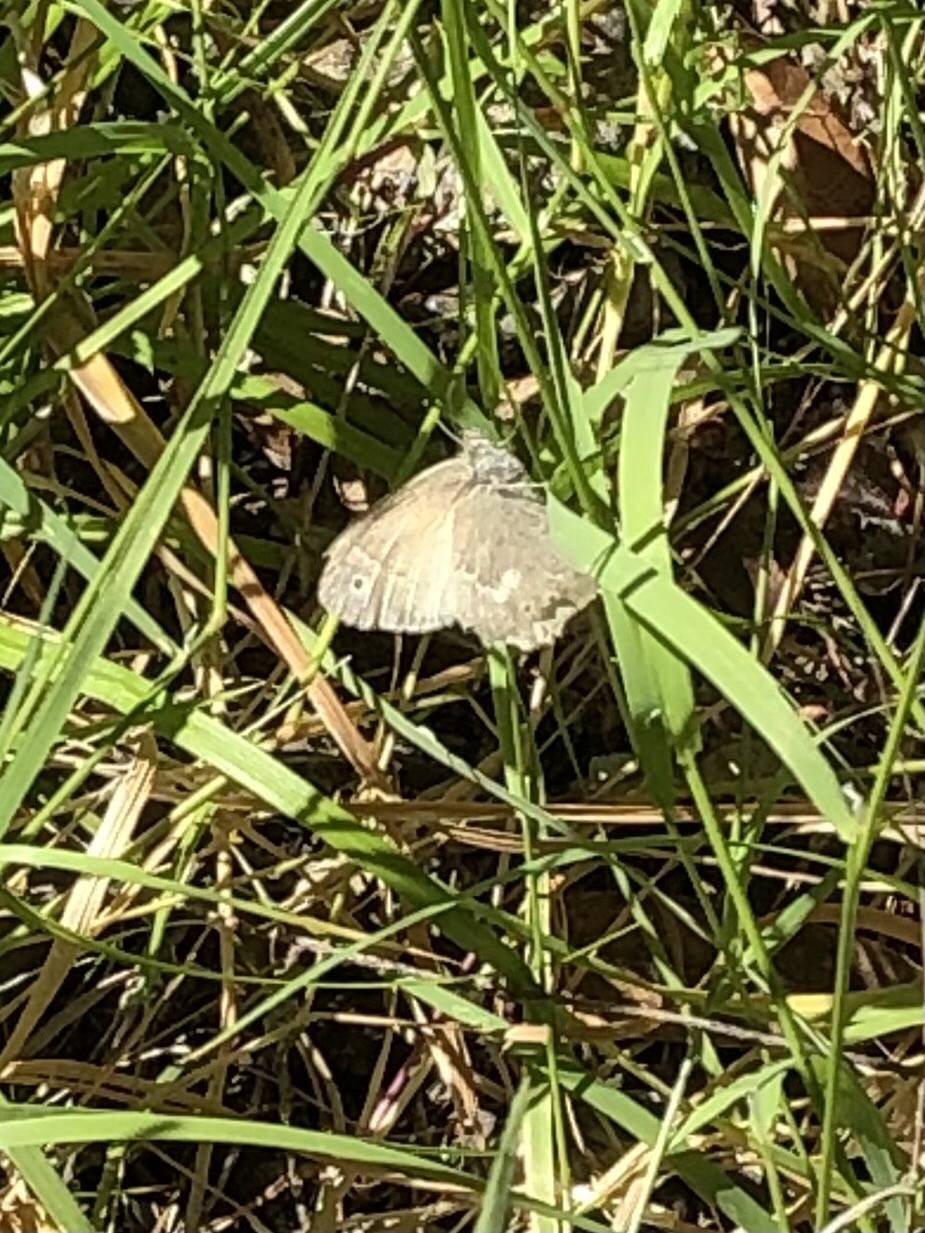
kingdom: Animalia
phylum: Arthropoda
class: Insecta
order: Lepidoptera
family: Nymphalidae
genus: Coenonympha
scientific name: Coenonympha california
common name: Common ringlet
